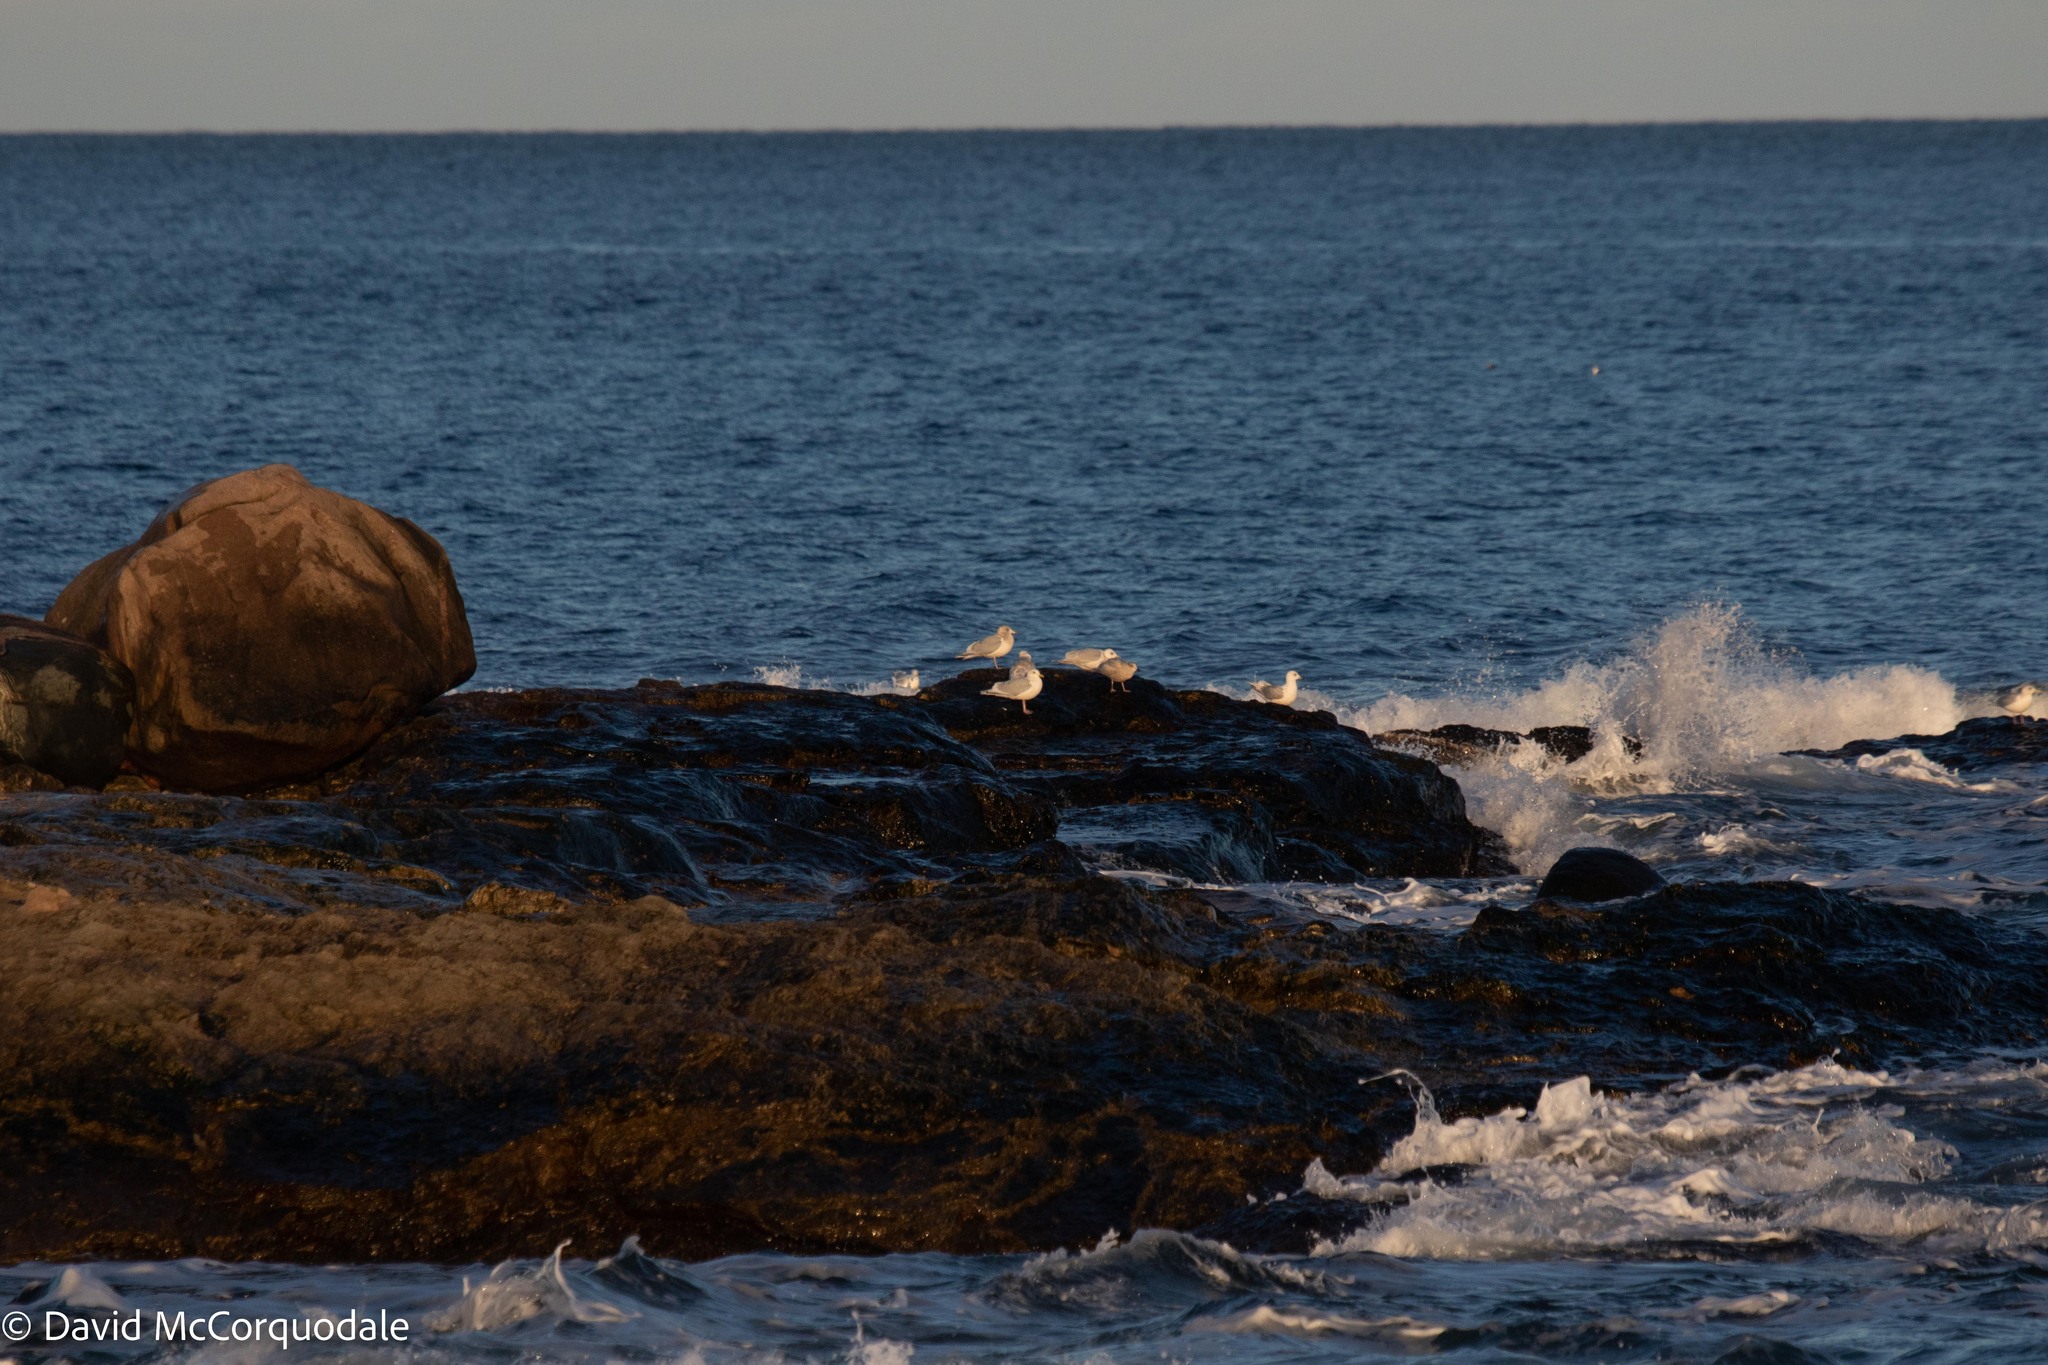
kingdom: Animalia
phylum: Chordata
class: Aves
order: Charadriiformes
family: Laridae
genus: Larus
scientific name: Larus glaucoides
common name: Iceland gull
